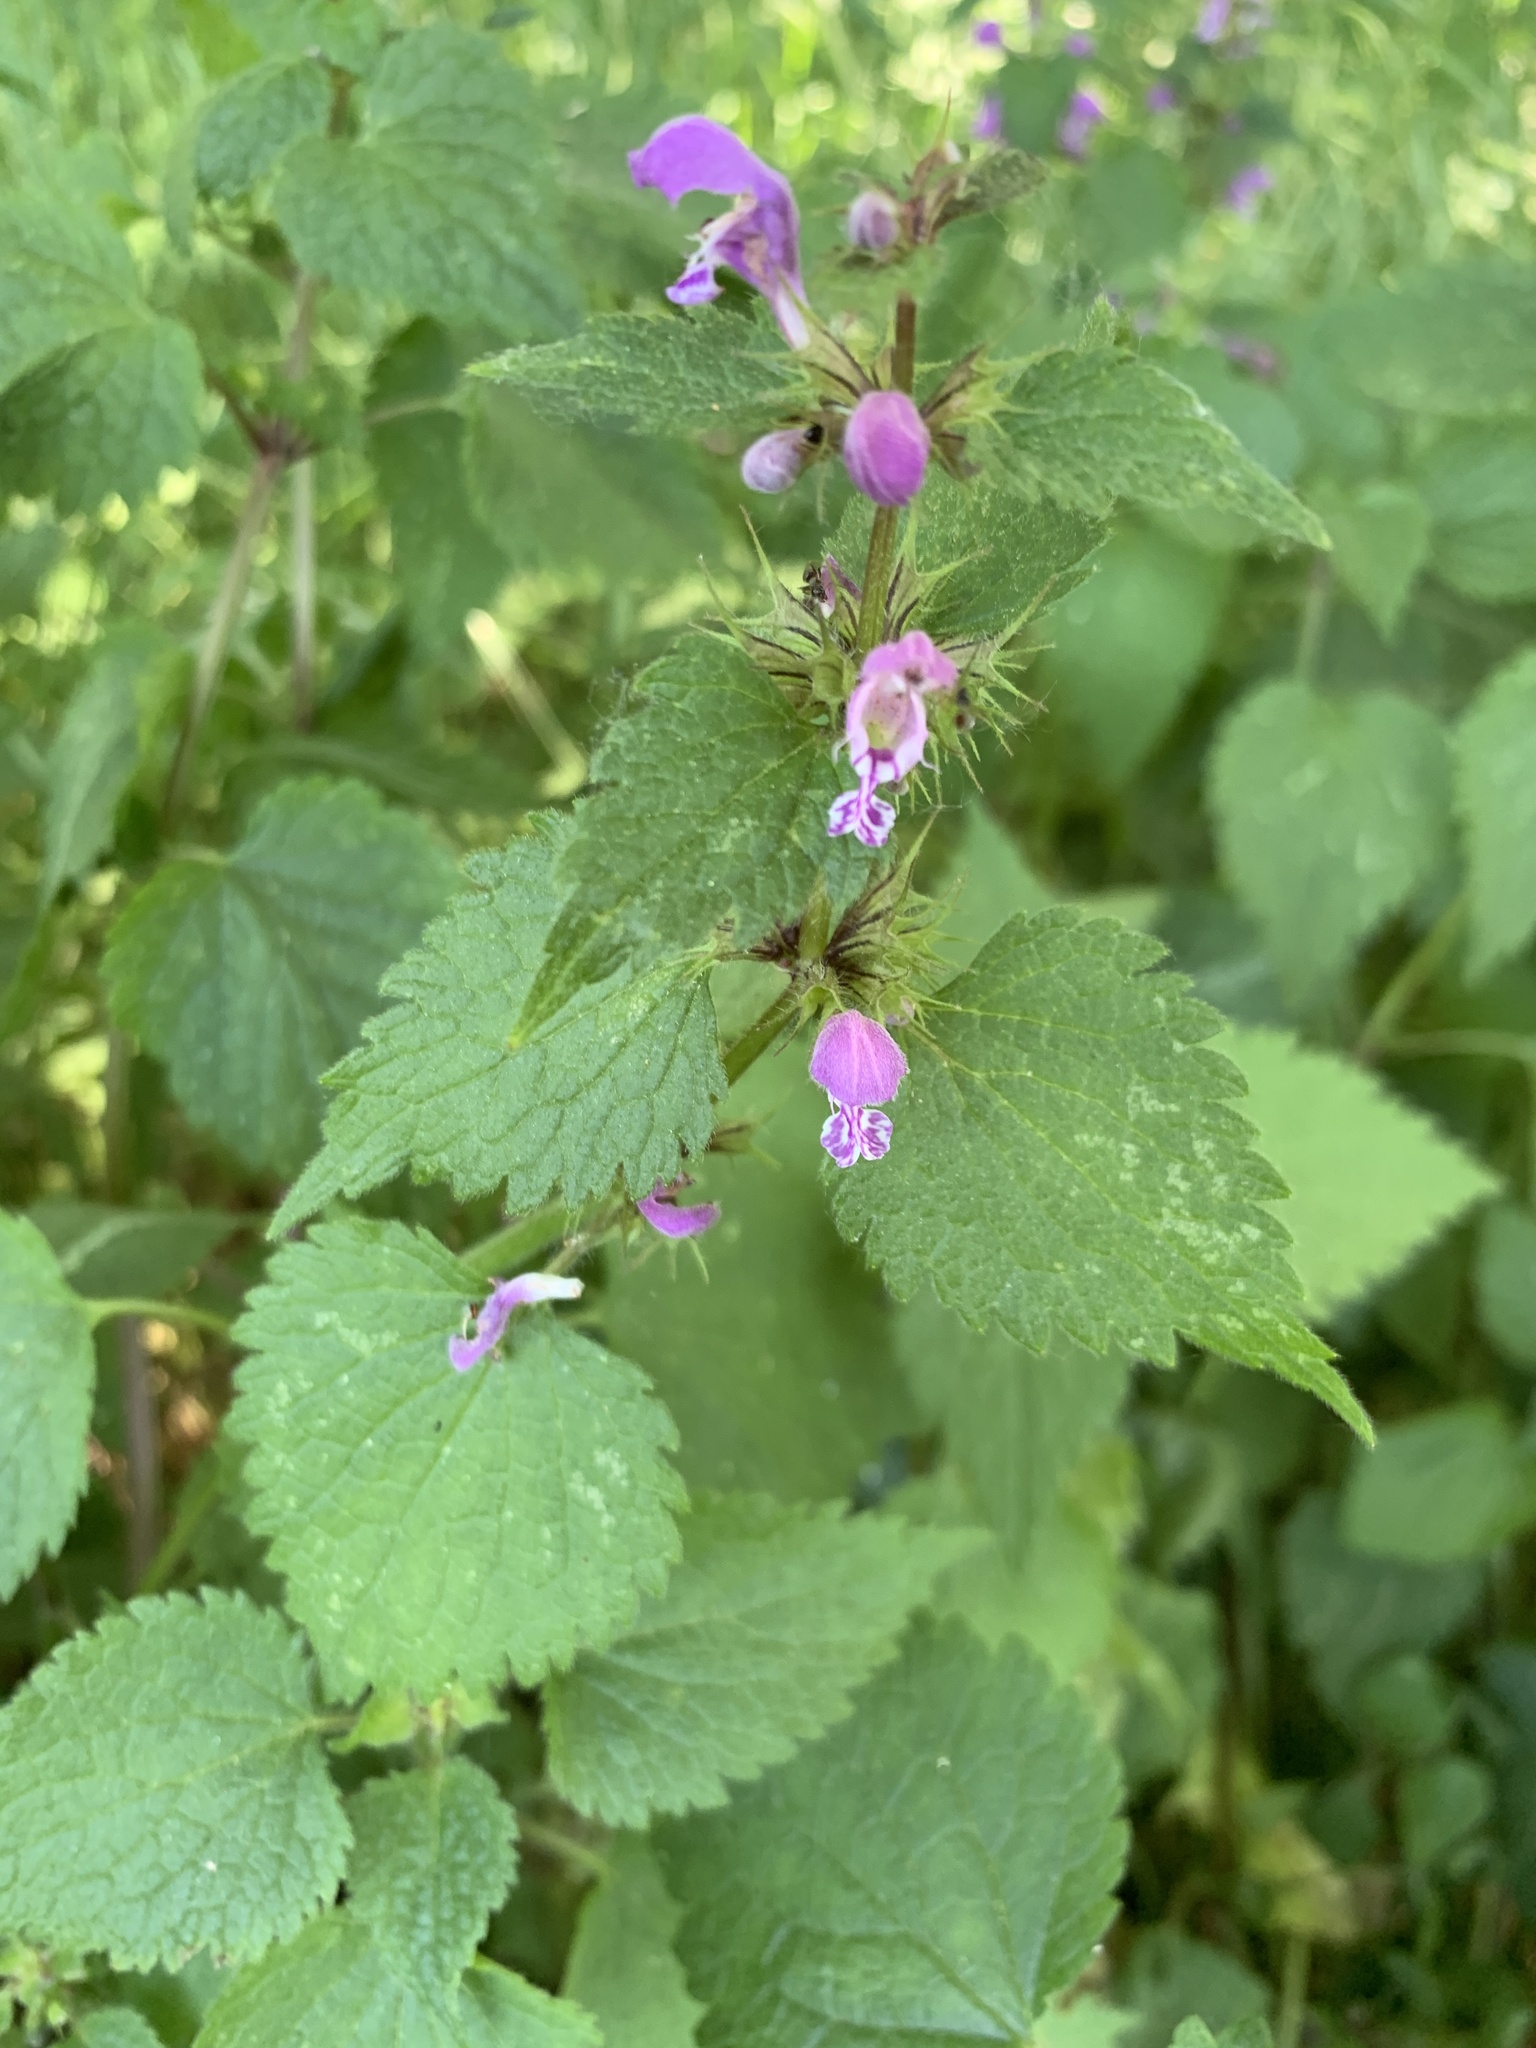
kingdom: Plantae
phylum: Tracheophyta
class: Magnoliopsida
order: Lamiales
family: Lamiaceae
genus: Lamium
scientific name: Lamium maculatum
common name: Spotted dead-nettle
